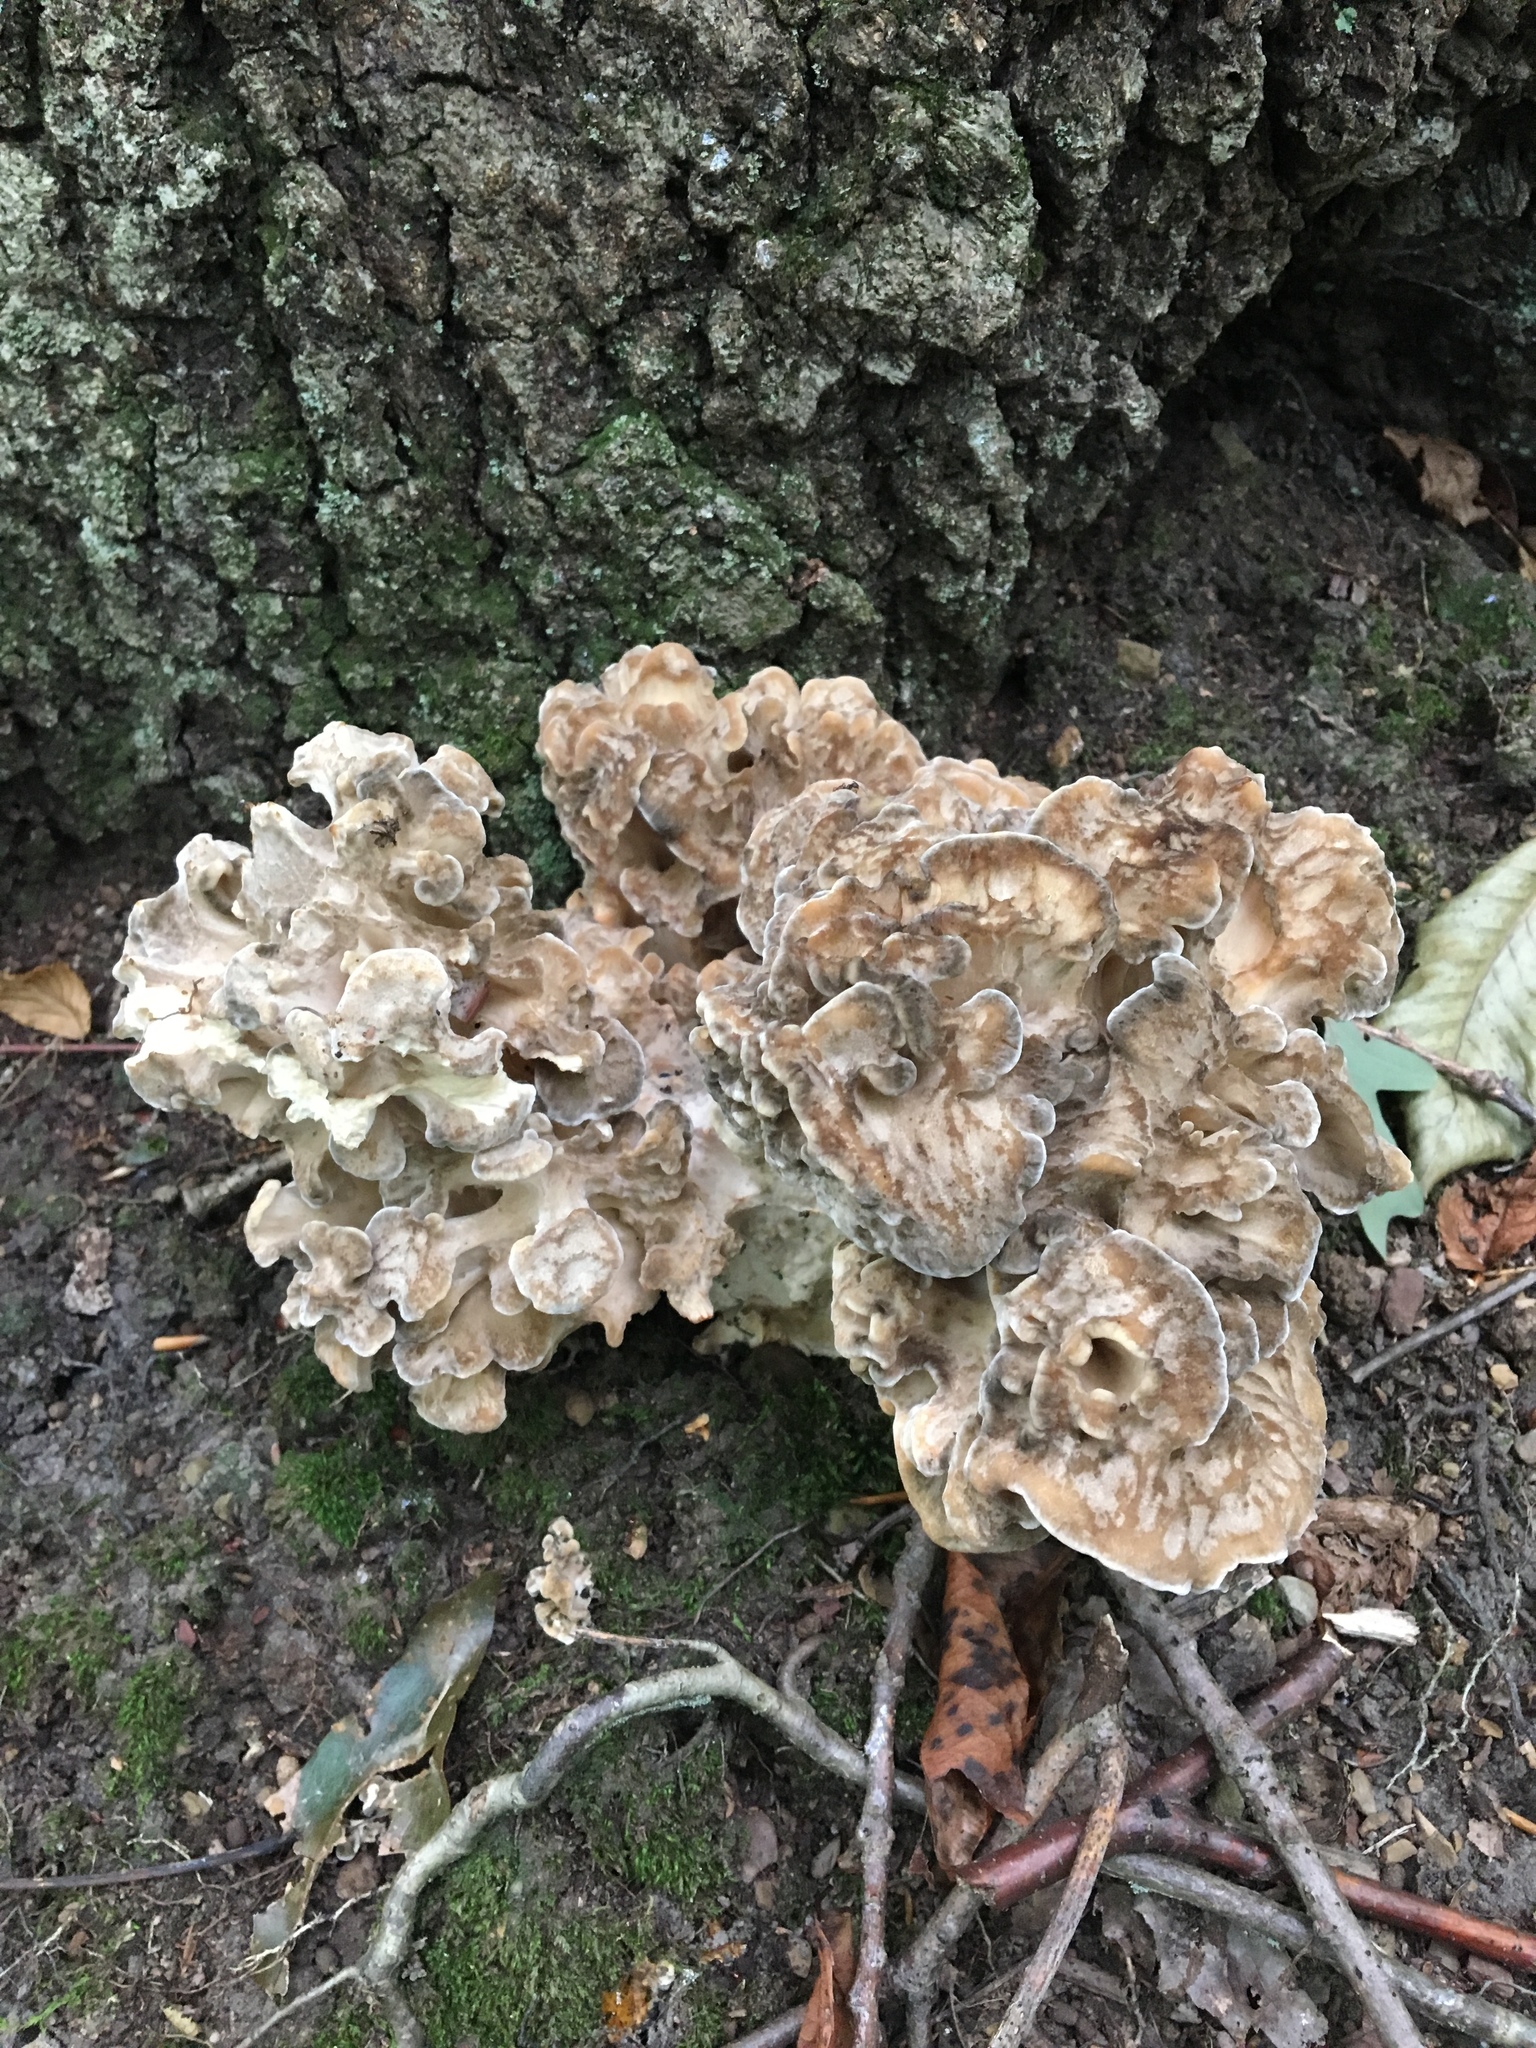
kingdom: Fungi
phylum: Basidiomycota
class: Agaricomycetes
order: Polyporales
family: Grifolaceae
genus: Grifola
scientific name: Grifola frondosa
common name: Hen of the woods
